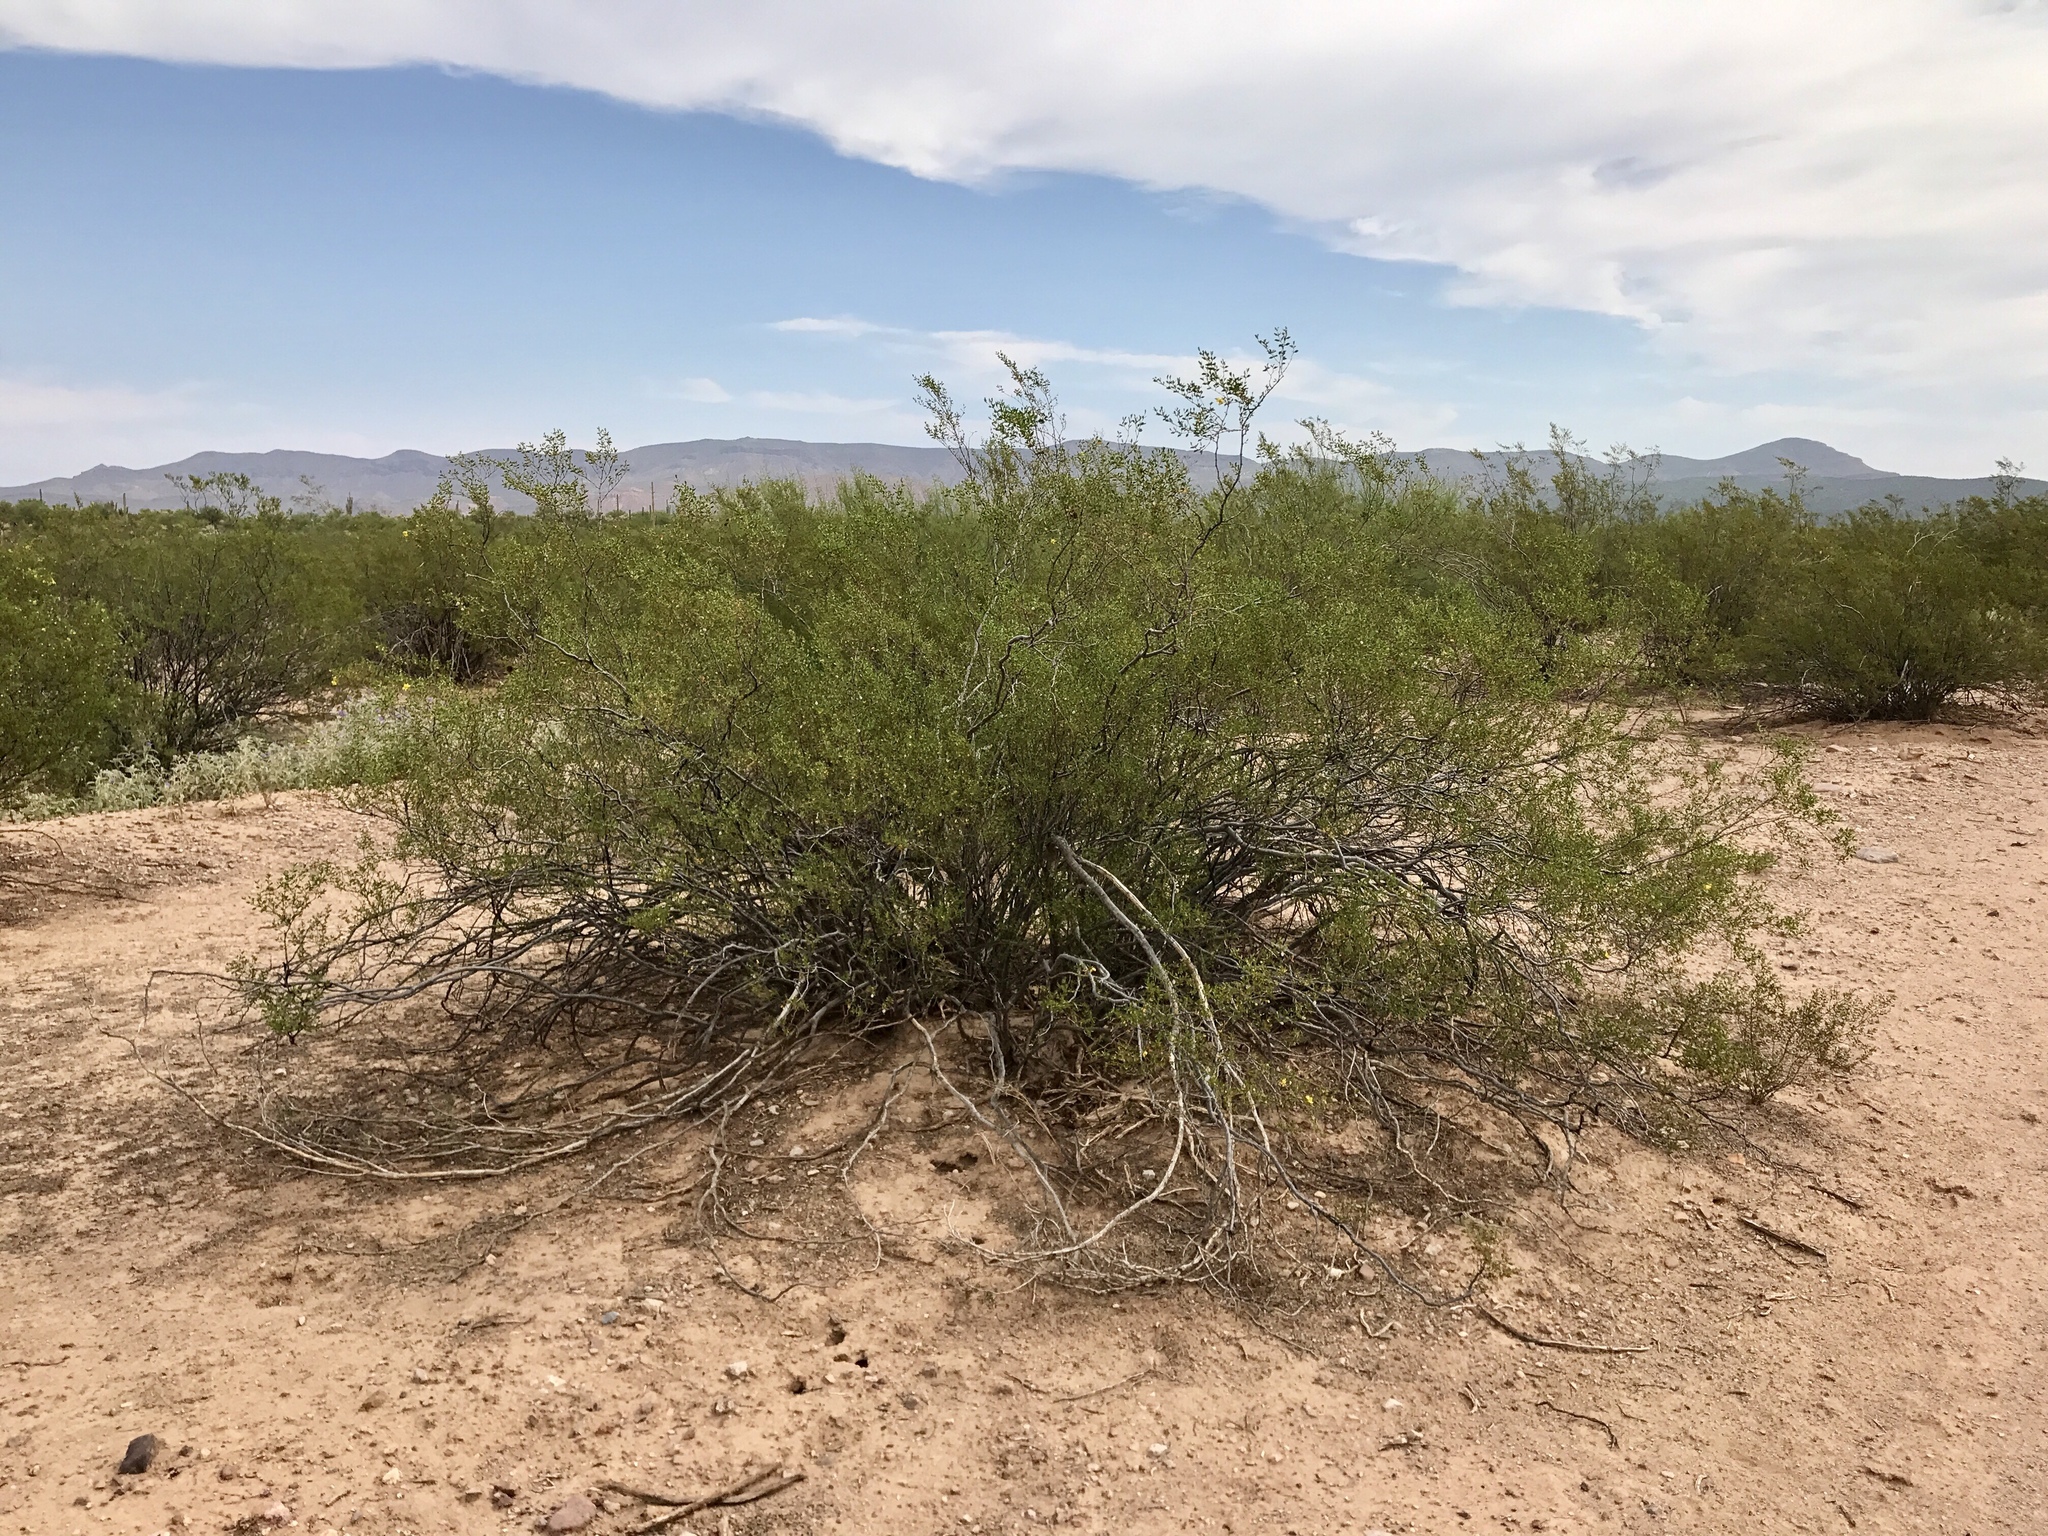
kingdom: Plantae
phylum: Tracheophyta
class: Magnoliopsida
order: Zygophyllales
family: Zygophyllaceae
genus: Larrea
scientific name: Larrea tridentata
